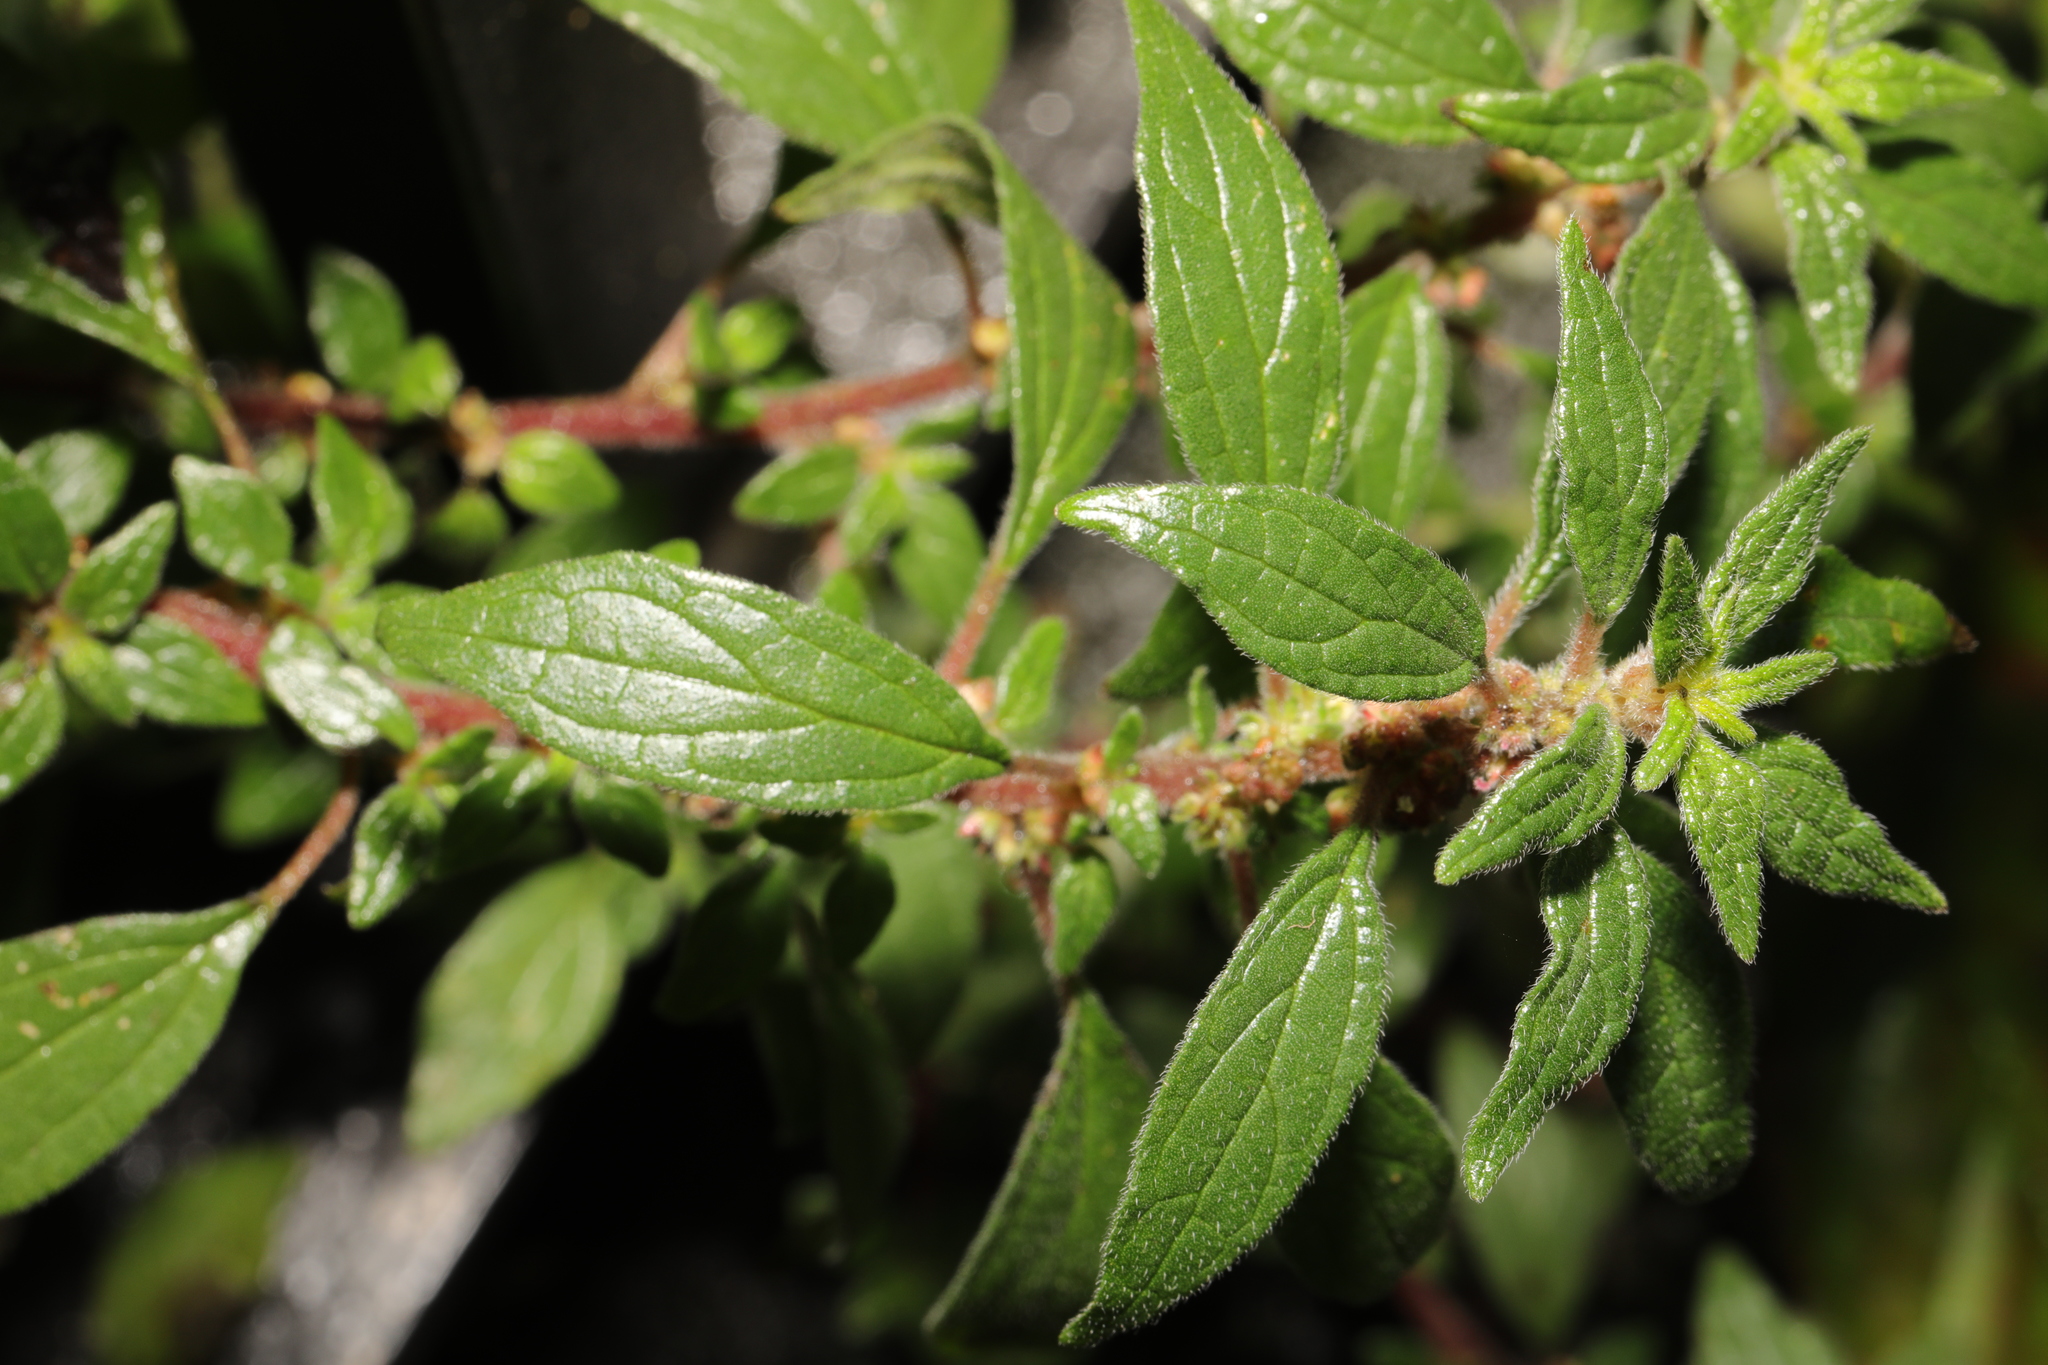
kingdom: Plantae
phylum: Tracheophyta
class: Magnoliopsida
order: Rosales
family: Urticaceae
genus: Parietaria
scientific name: Parietaria judaica
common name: Pellitory-of-the-wall
